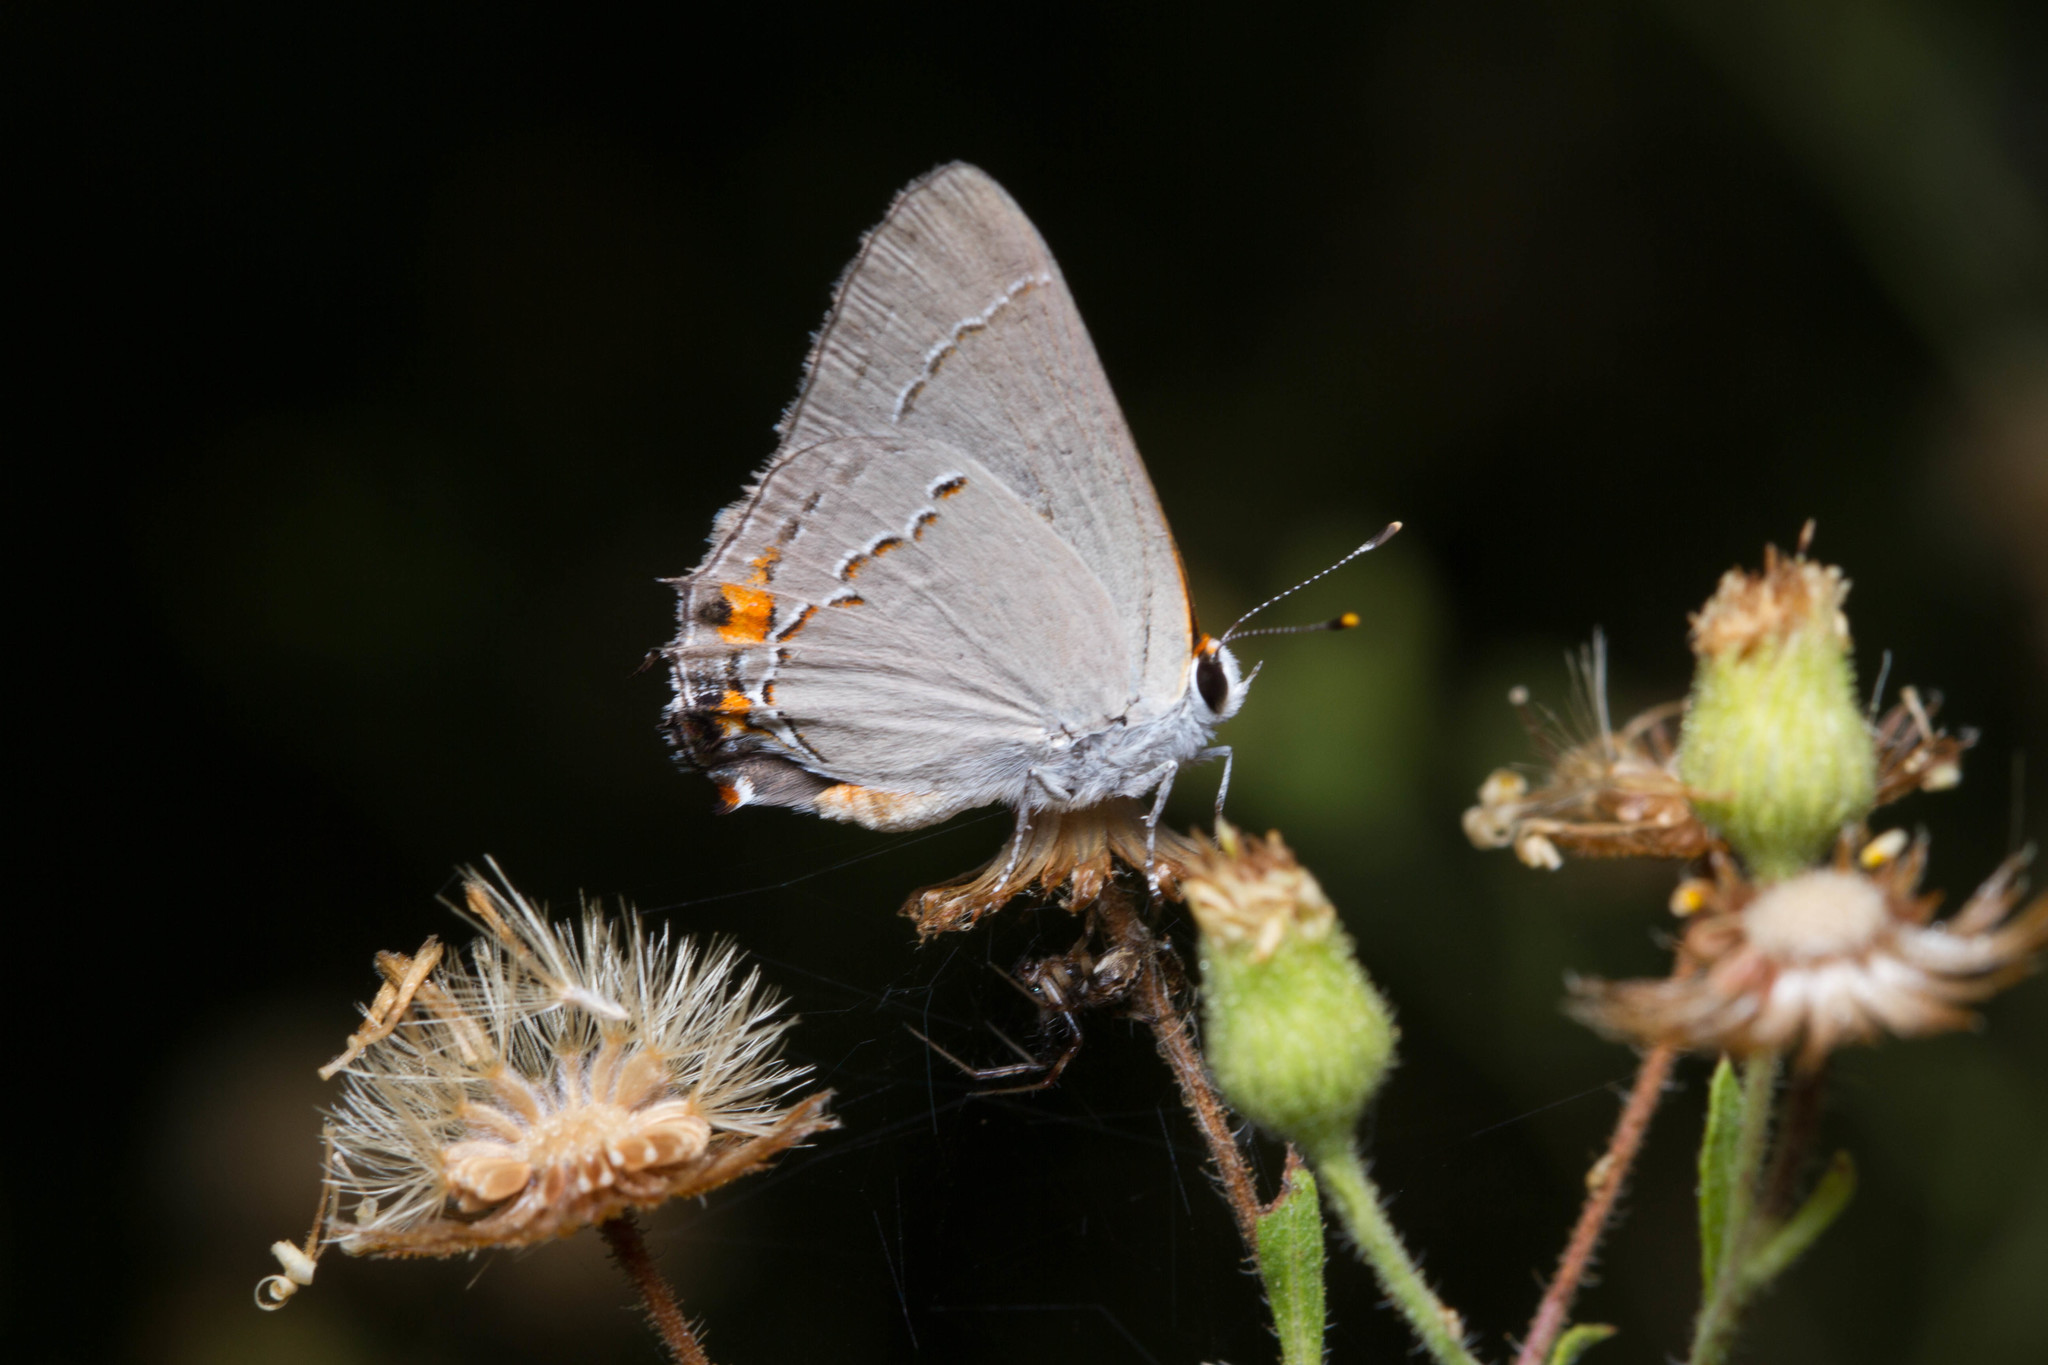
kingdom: Animalia
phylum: Arthropoda
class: Insecta
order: Lepidoptera
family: Lycaenidae
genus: Strymon
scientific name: Strymon melinus
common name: Gray hairstreak
